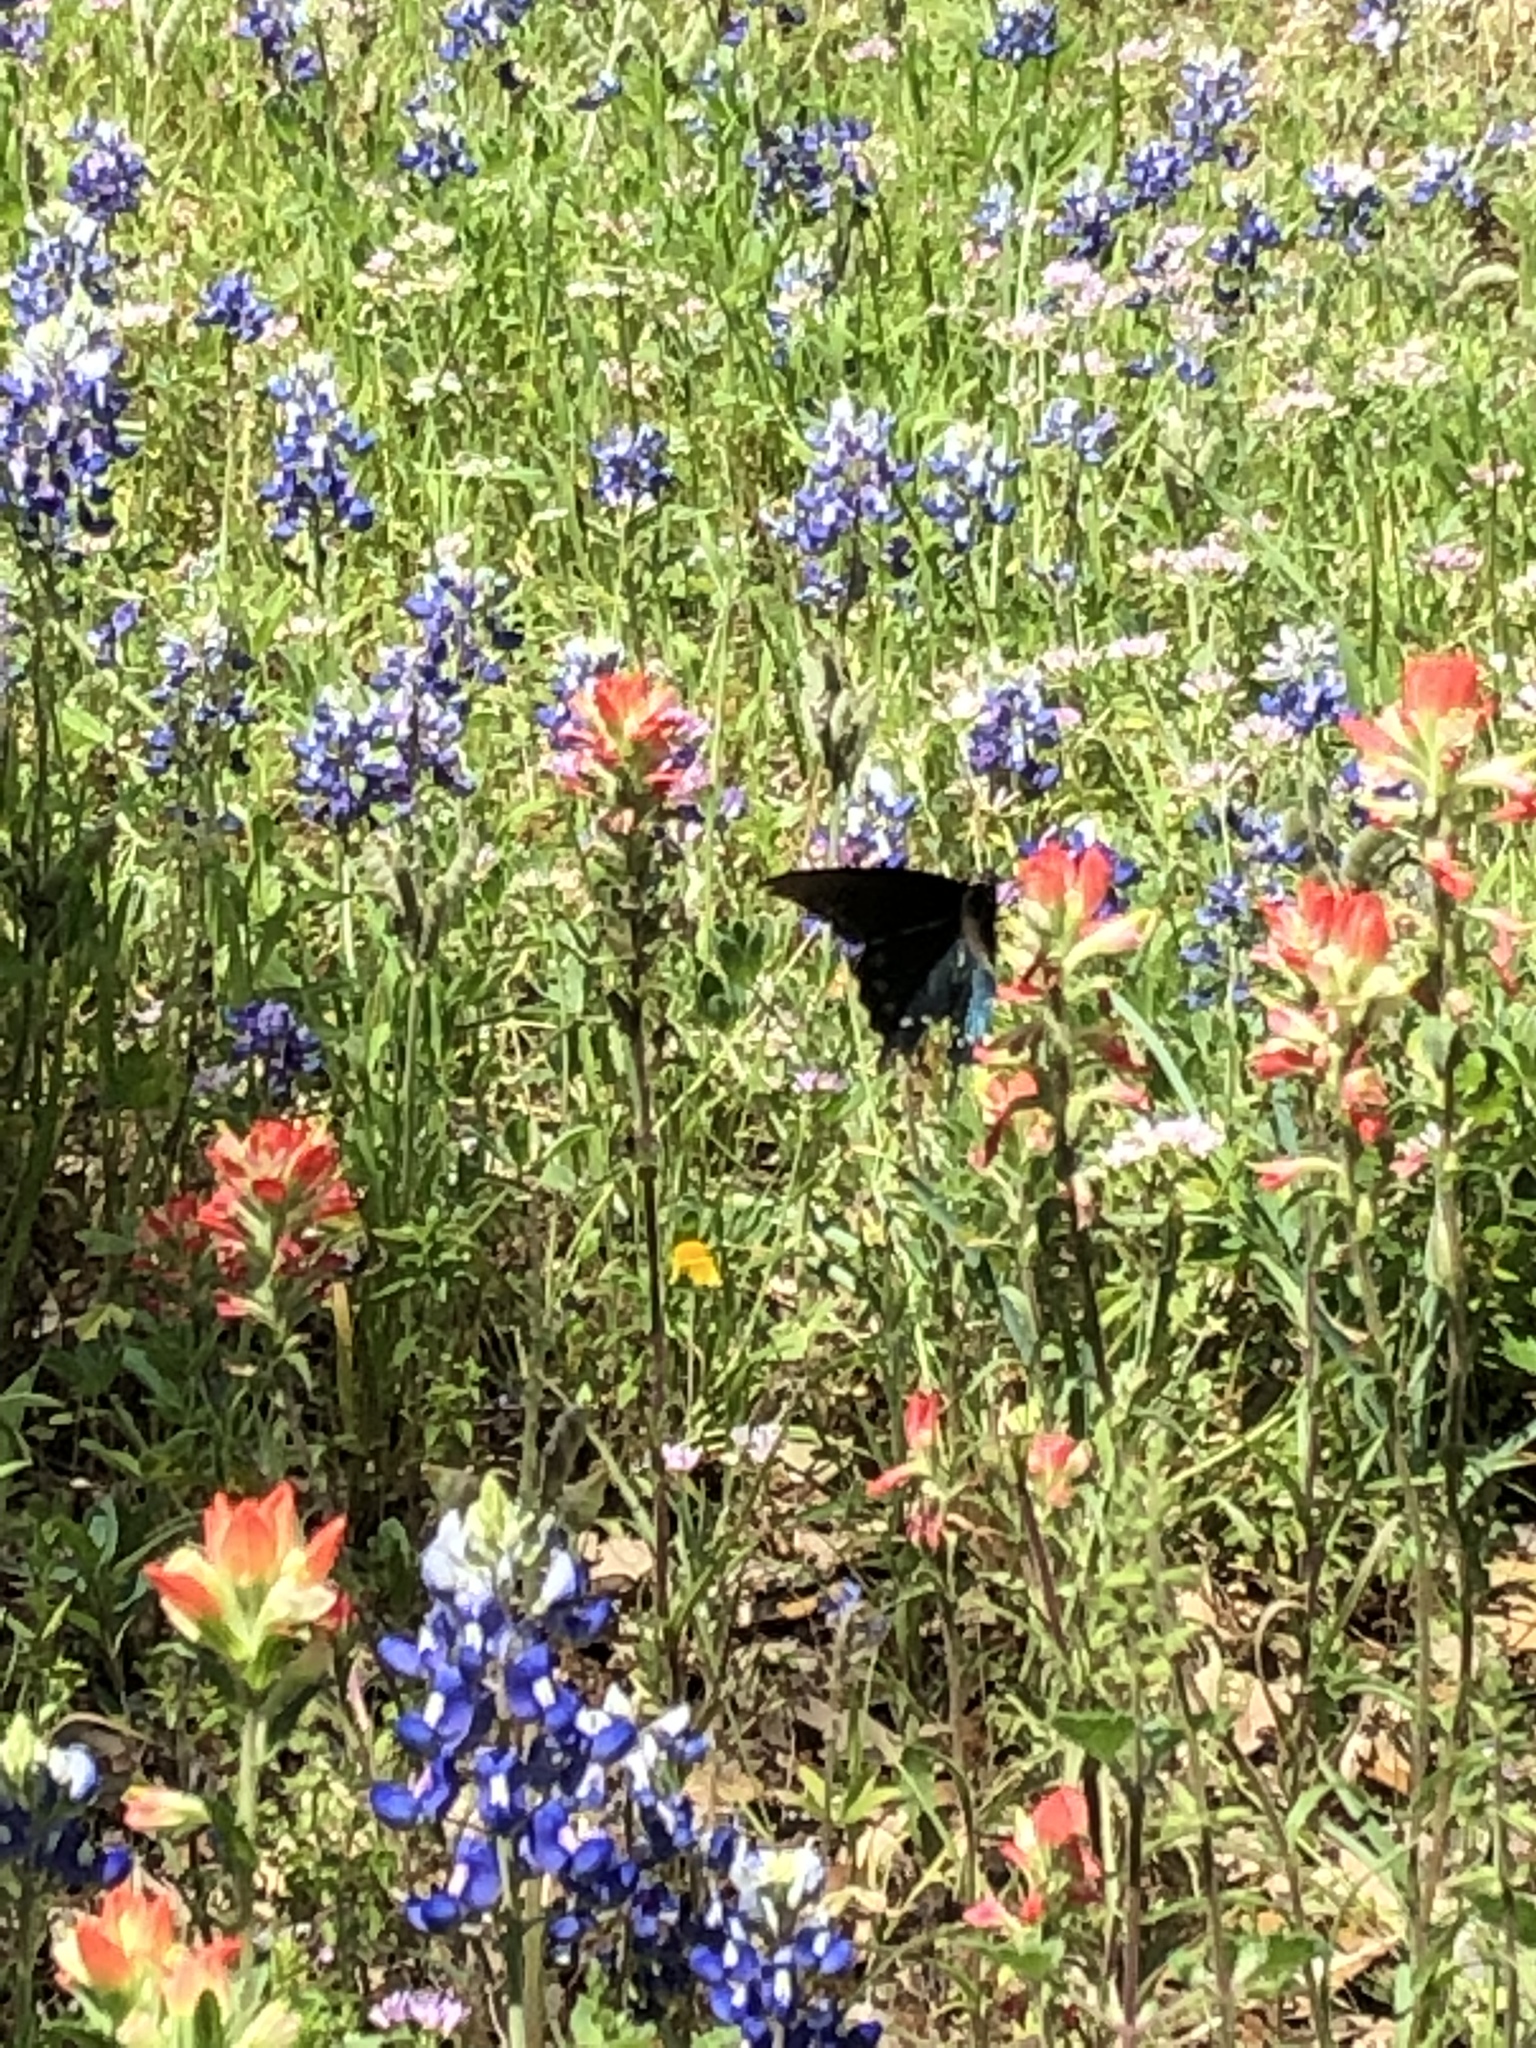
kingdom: Animalia
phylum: Arthropoda
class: Insecta
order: Lepidoptera
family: Papilionidae
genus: Battus
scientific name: Battus philenor
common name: Pipevine swallowtail
